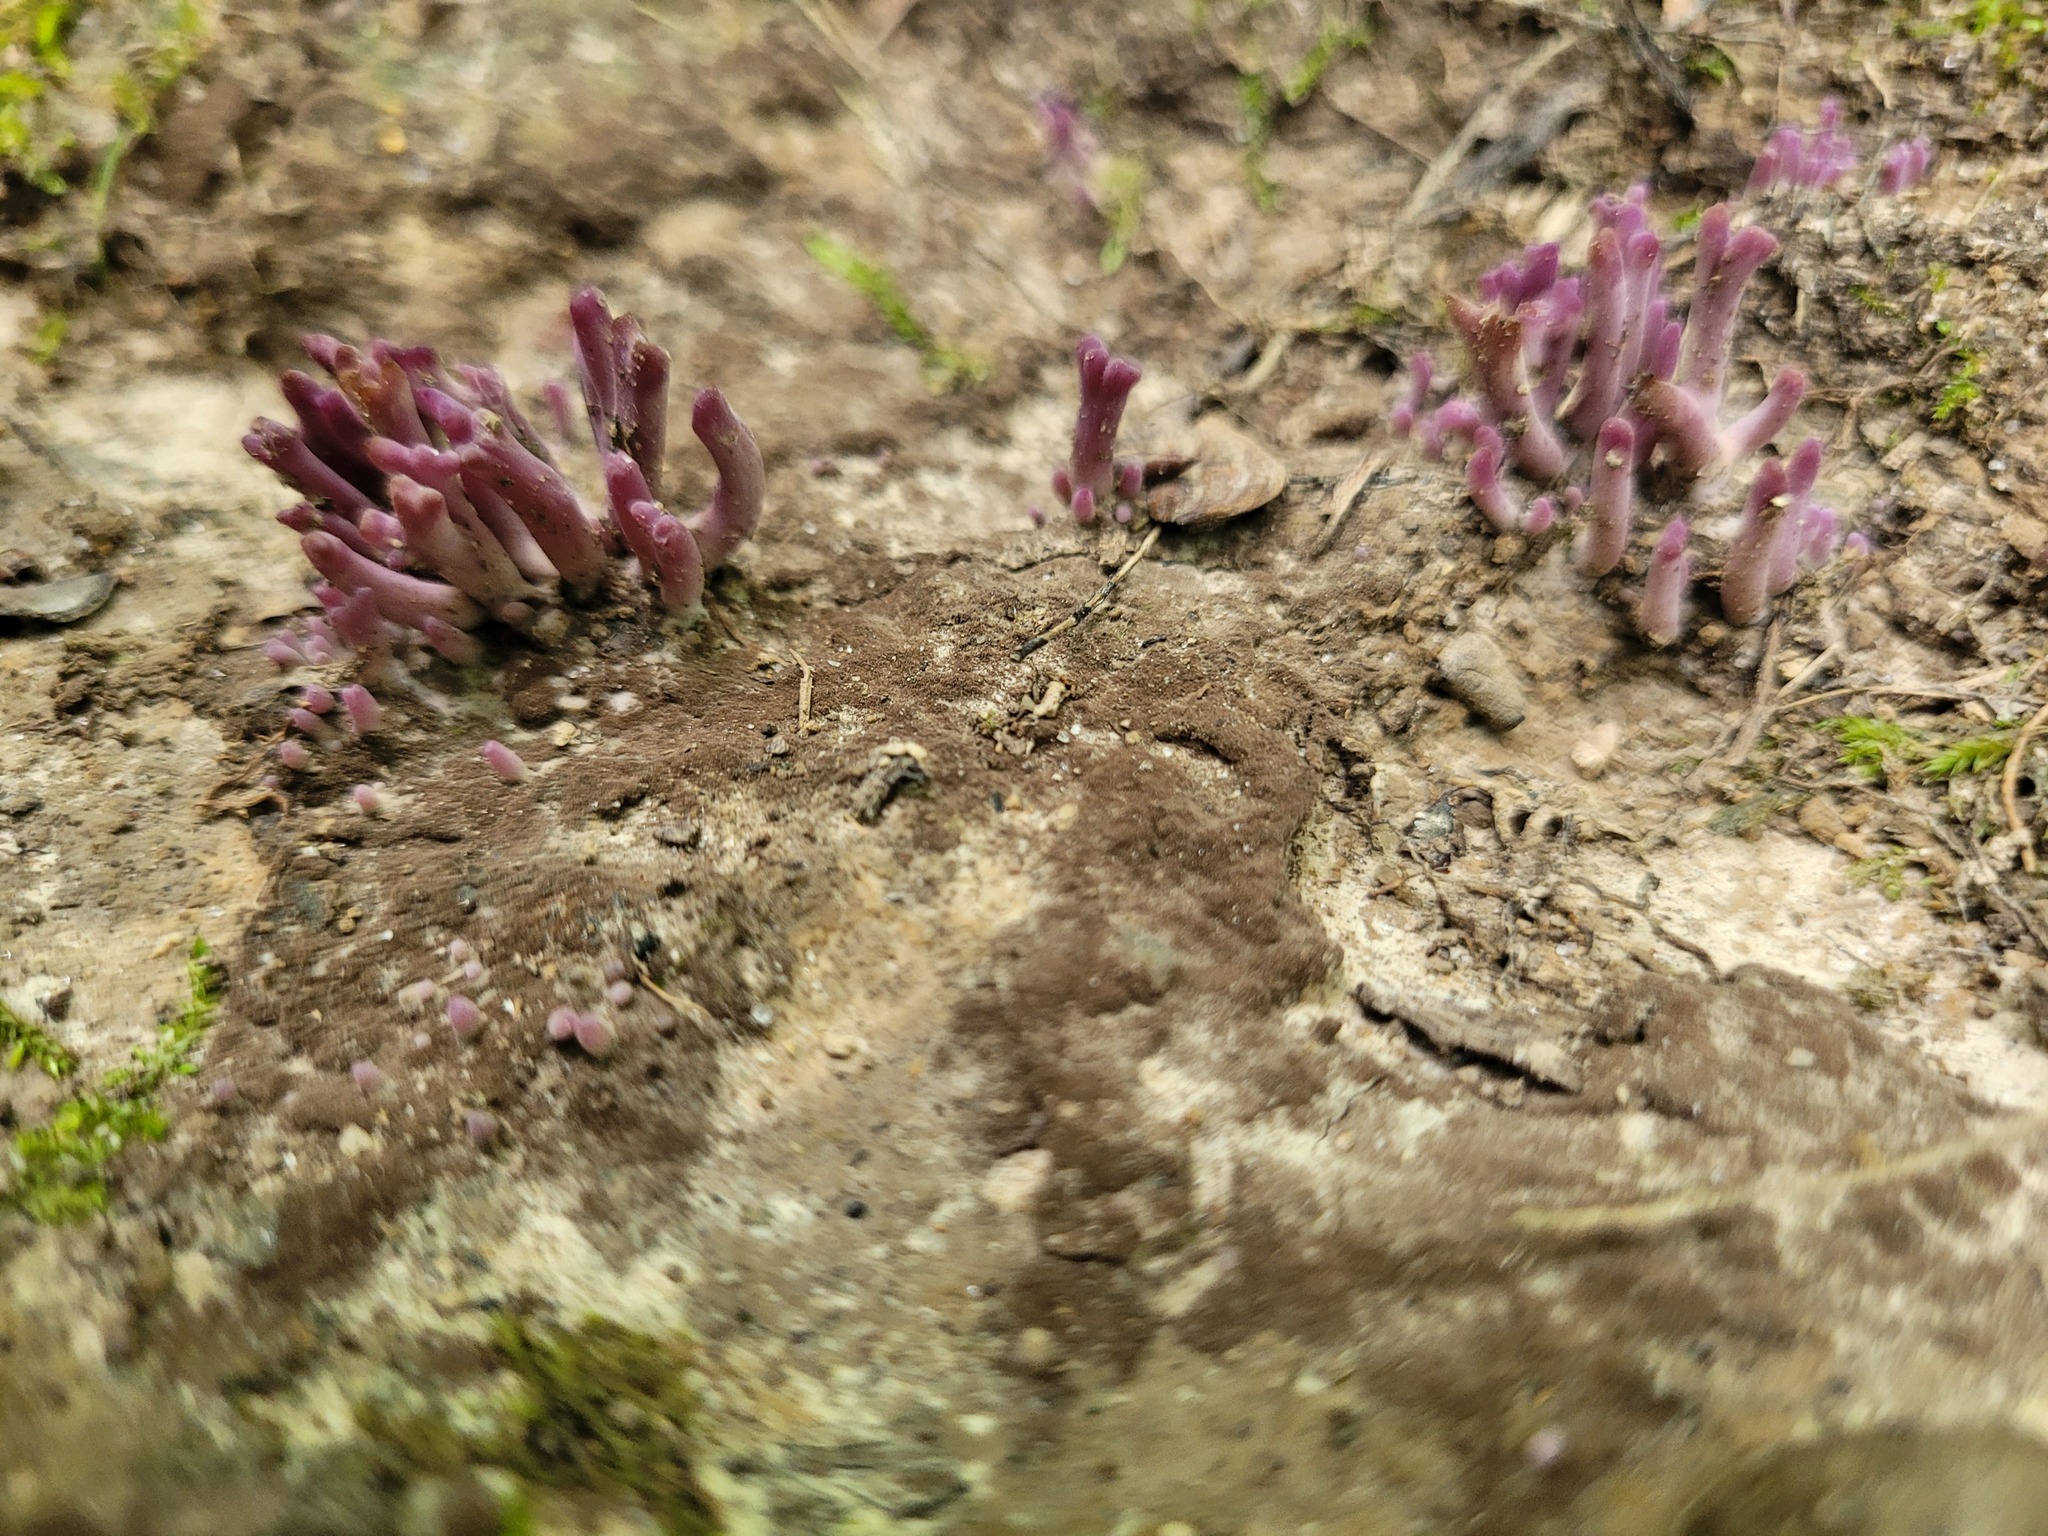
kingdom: Fungi
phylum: Basidiomycota
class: Agaricomycetes
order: Agaricales
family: Clavariaceae
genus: Clavaria
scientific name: Clavaria zollingeri
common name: Violet coral
